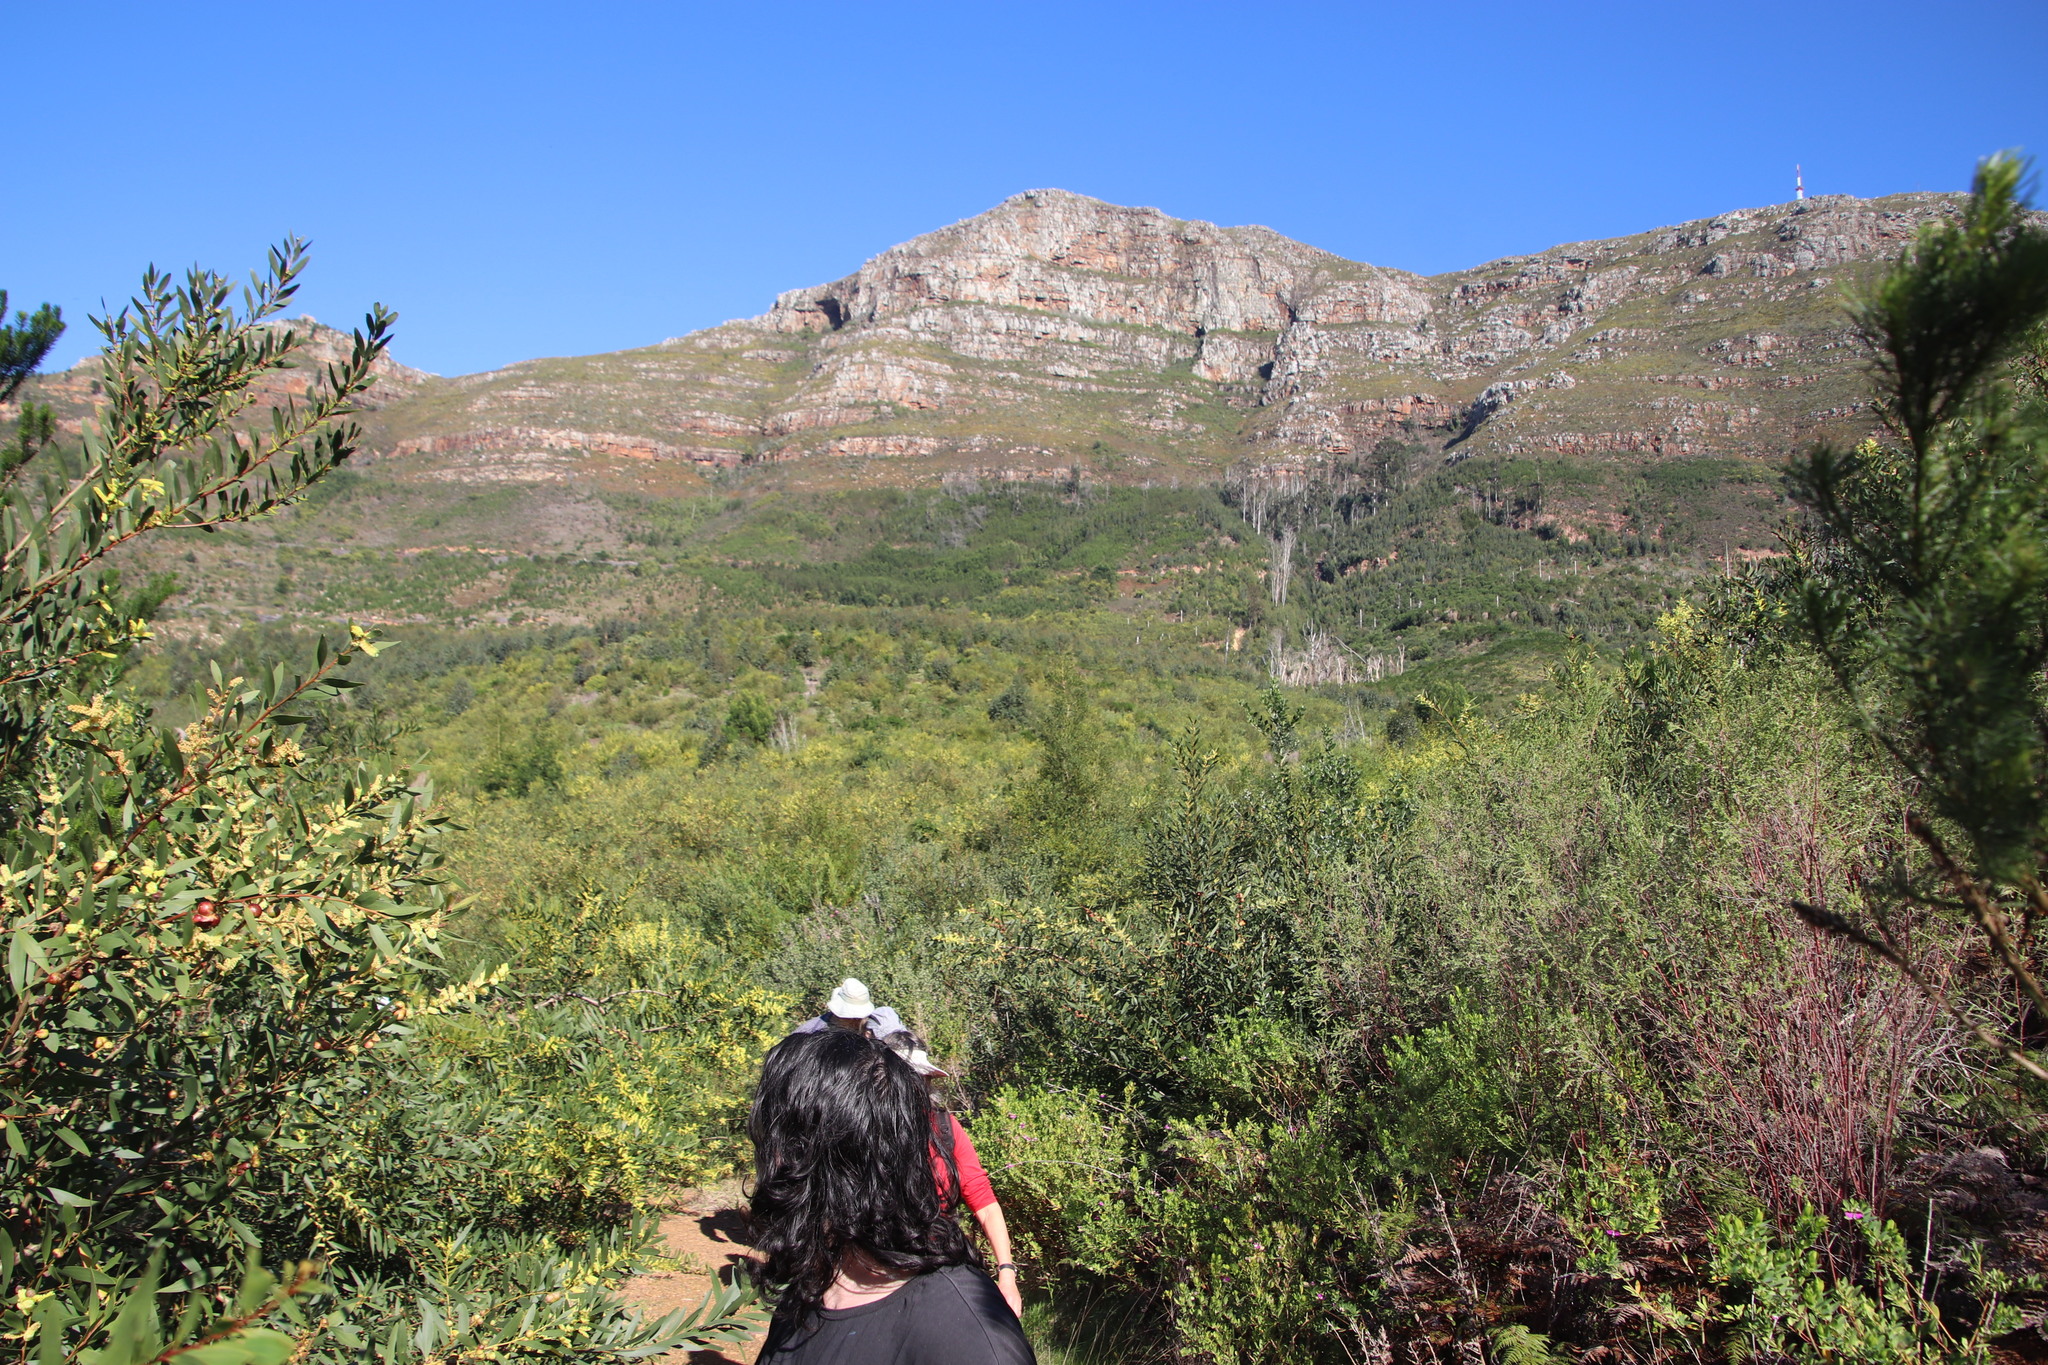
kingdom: Plantae
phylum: Tracheophyta
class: Magnoliopsida
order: Fabales
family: Fabaceae
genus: Acacia
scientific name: Acacia longifolia
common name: Sydney golden wattle
